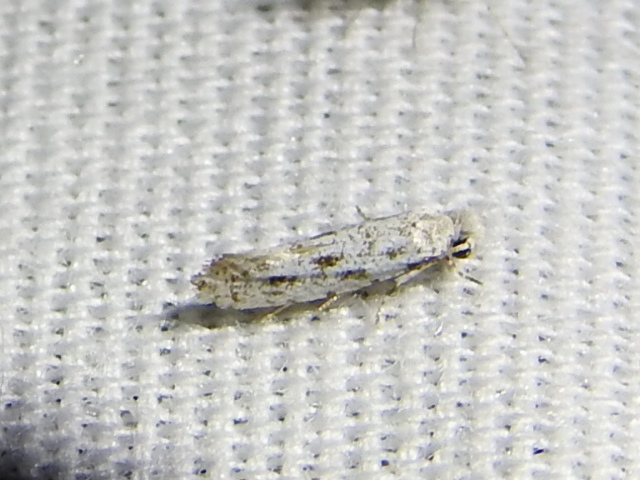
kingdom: Animalia
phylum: Arthropoda
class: Insecta
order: Lepidoptera
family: Meessiidae
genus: Diachorisia
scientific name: Diachorisia velatella
